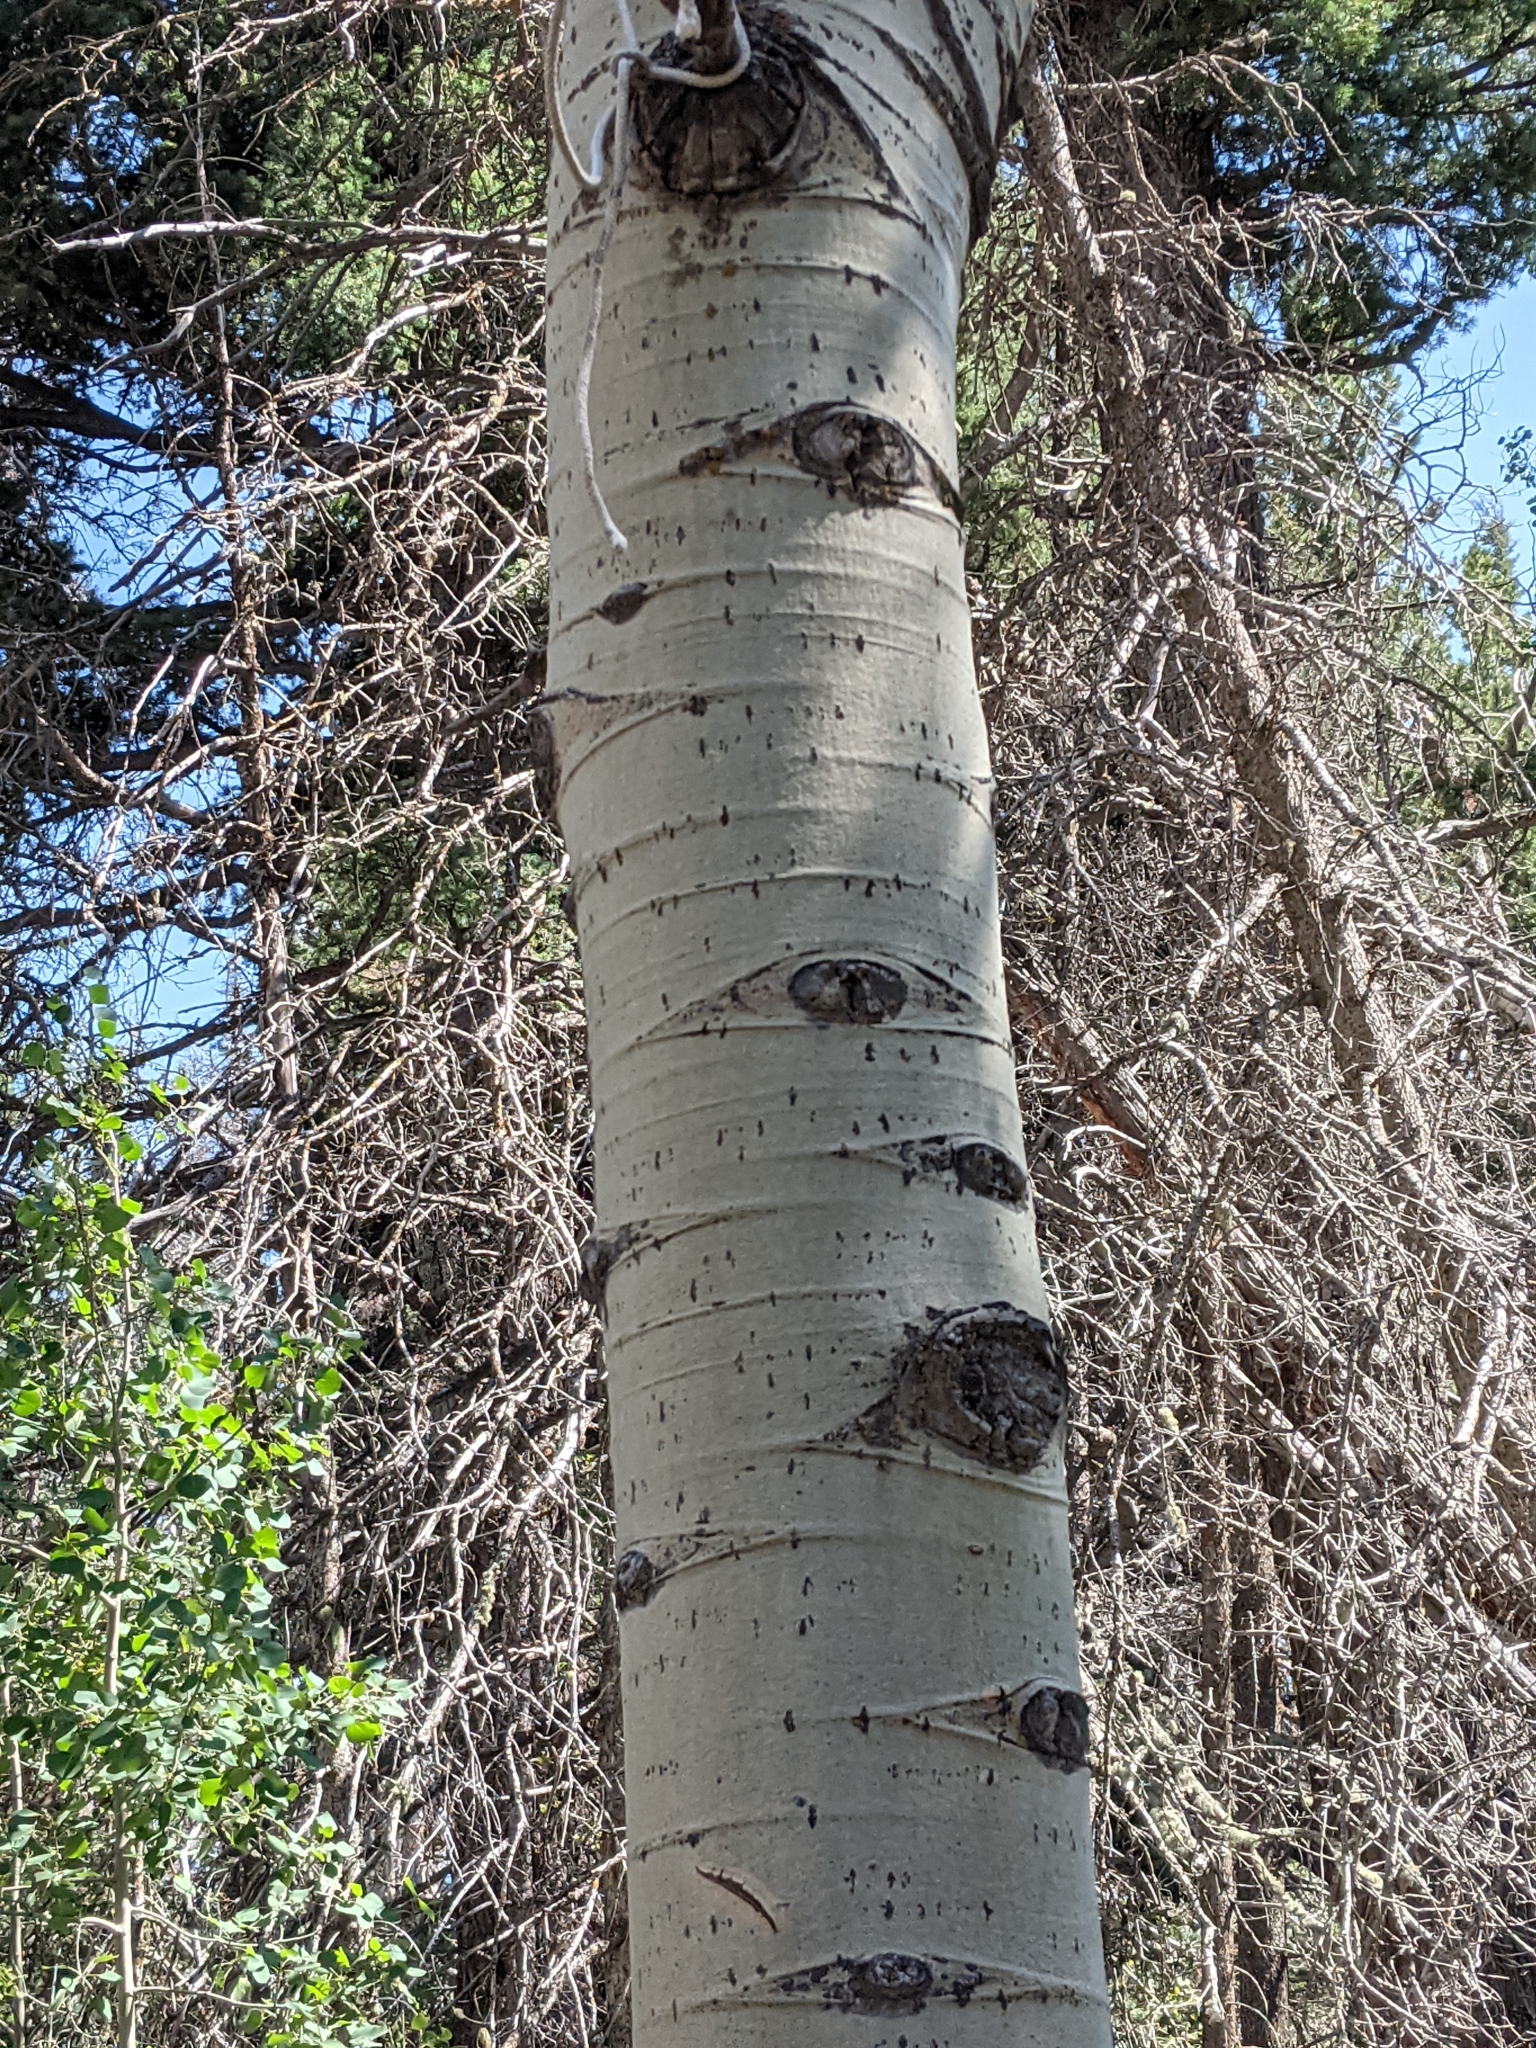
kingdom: Plantae
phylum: Tracheophyta
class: Magnoliopsida
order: Malpighiales
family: Salicaceae
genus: Populus
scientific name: Populus tremuloides
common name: Quaking aspen
